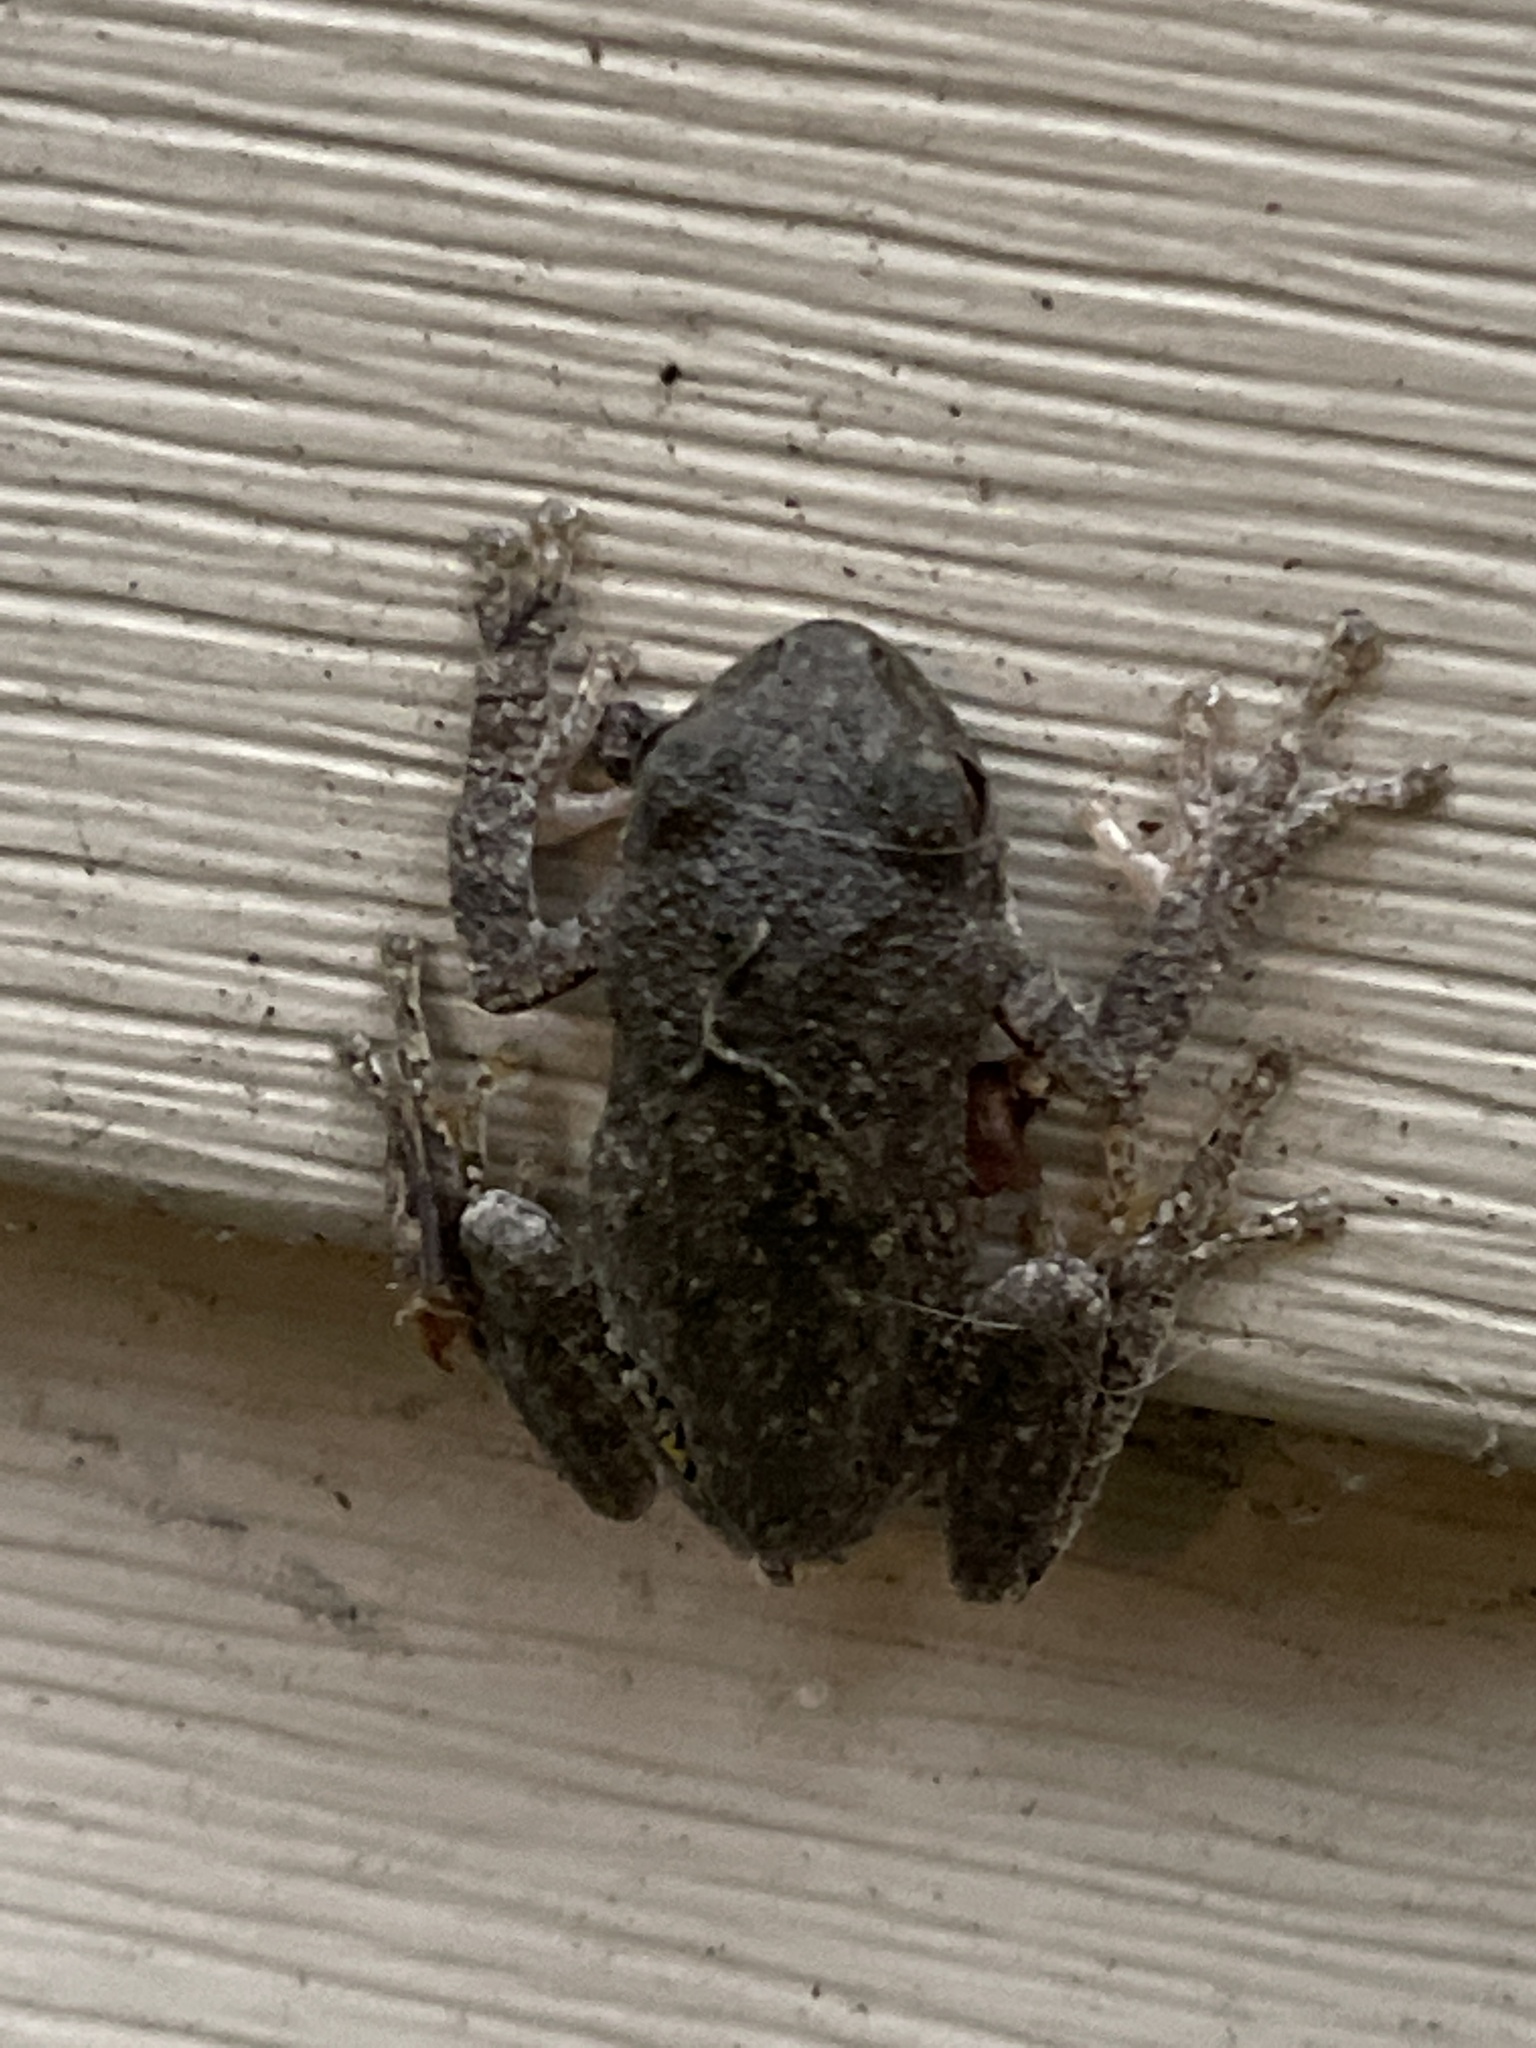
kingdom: Animalia
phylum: Chordata
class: Amphibia
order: Anura
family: Hylidae
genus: Hyla
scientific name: Hyla
